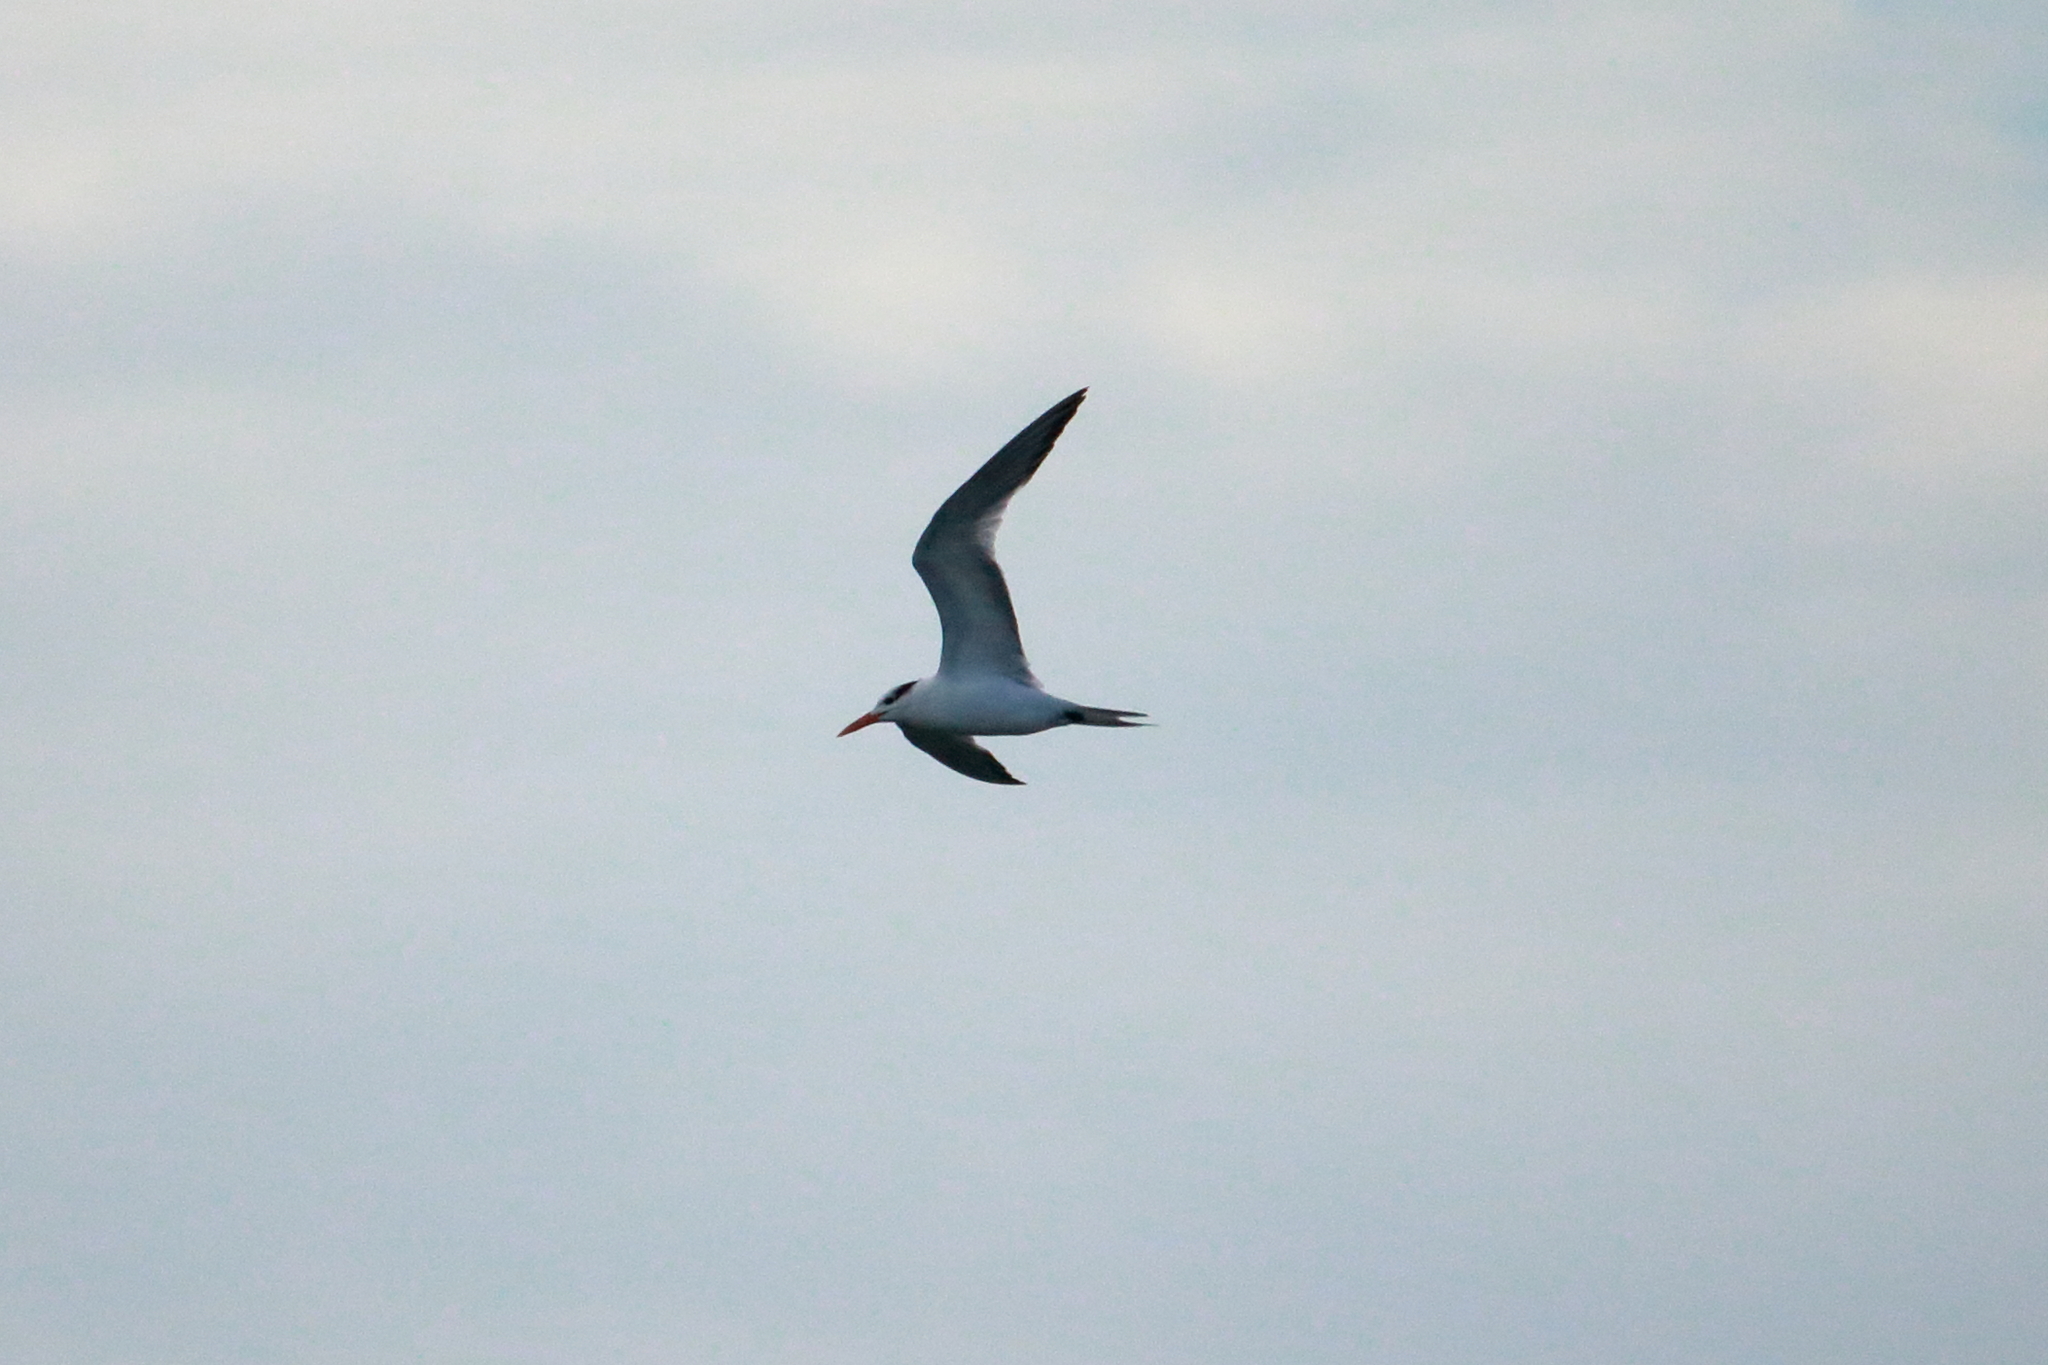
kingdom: Animalia
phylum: Chordata
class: Aves
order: Charadriiformes
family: Laridae
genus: Thalasseus
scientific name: Thalasseus maximus
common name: Royal tern
